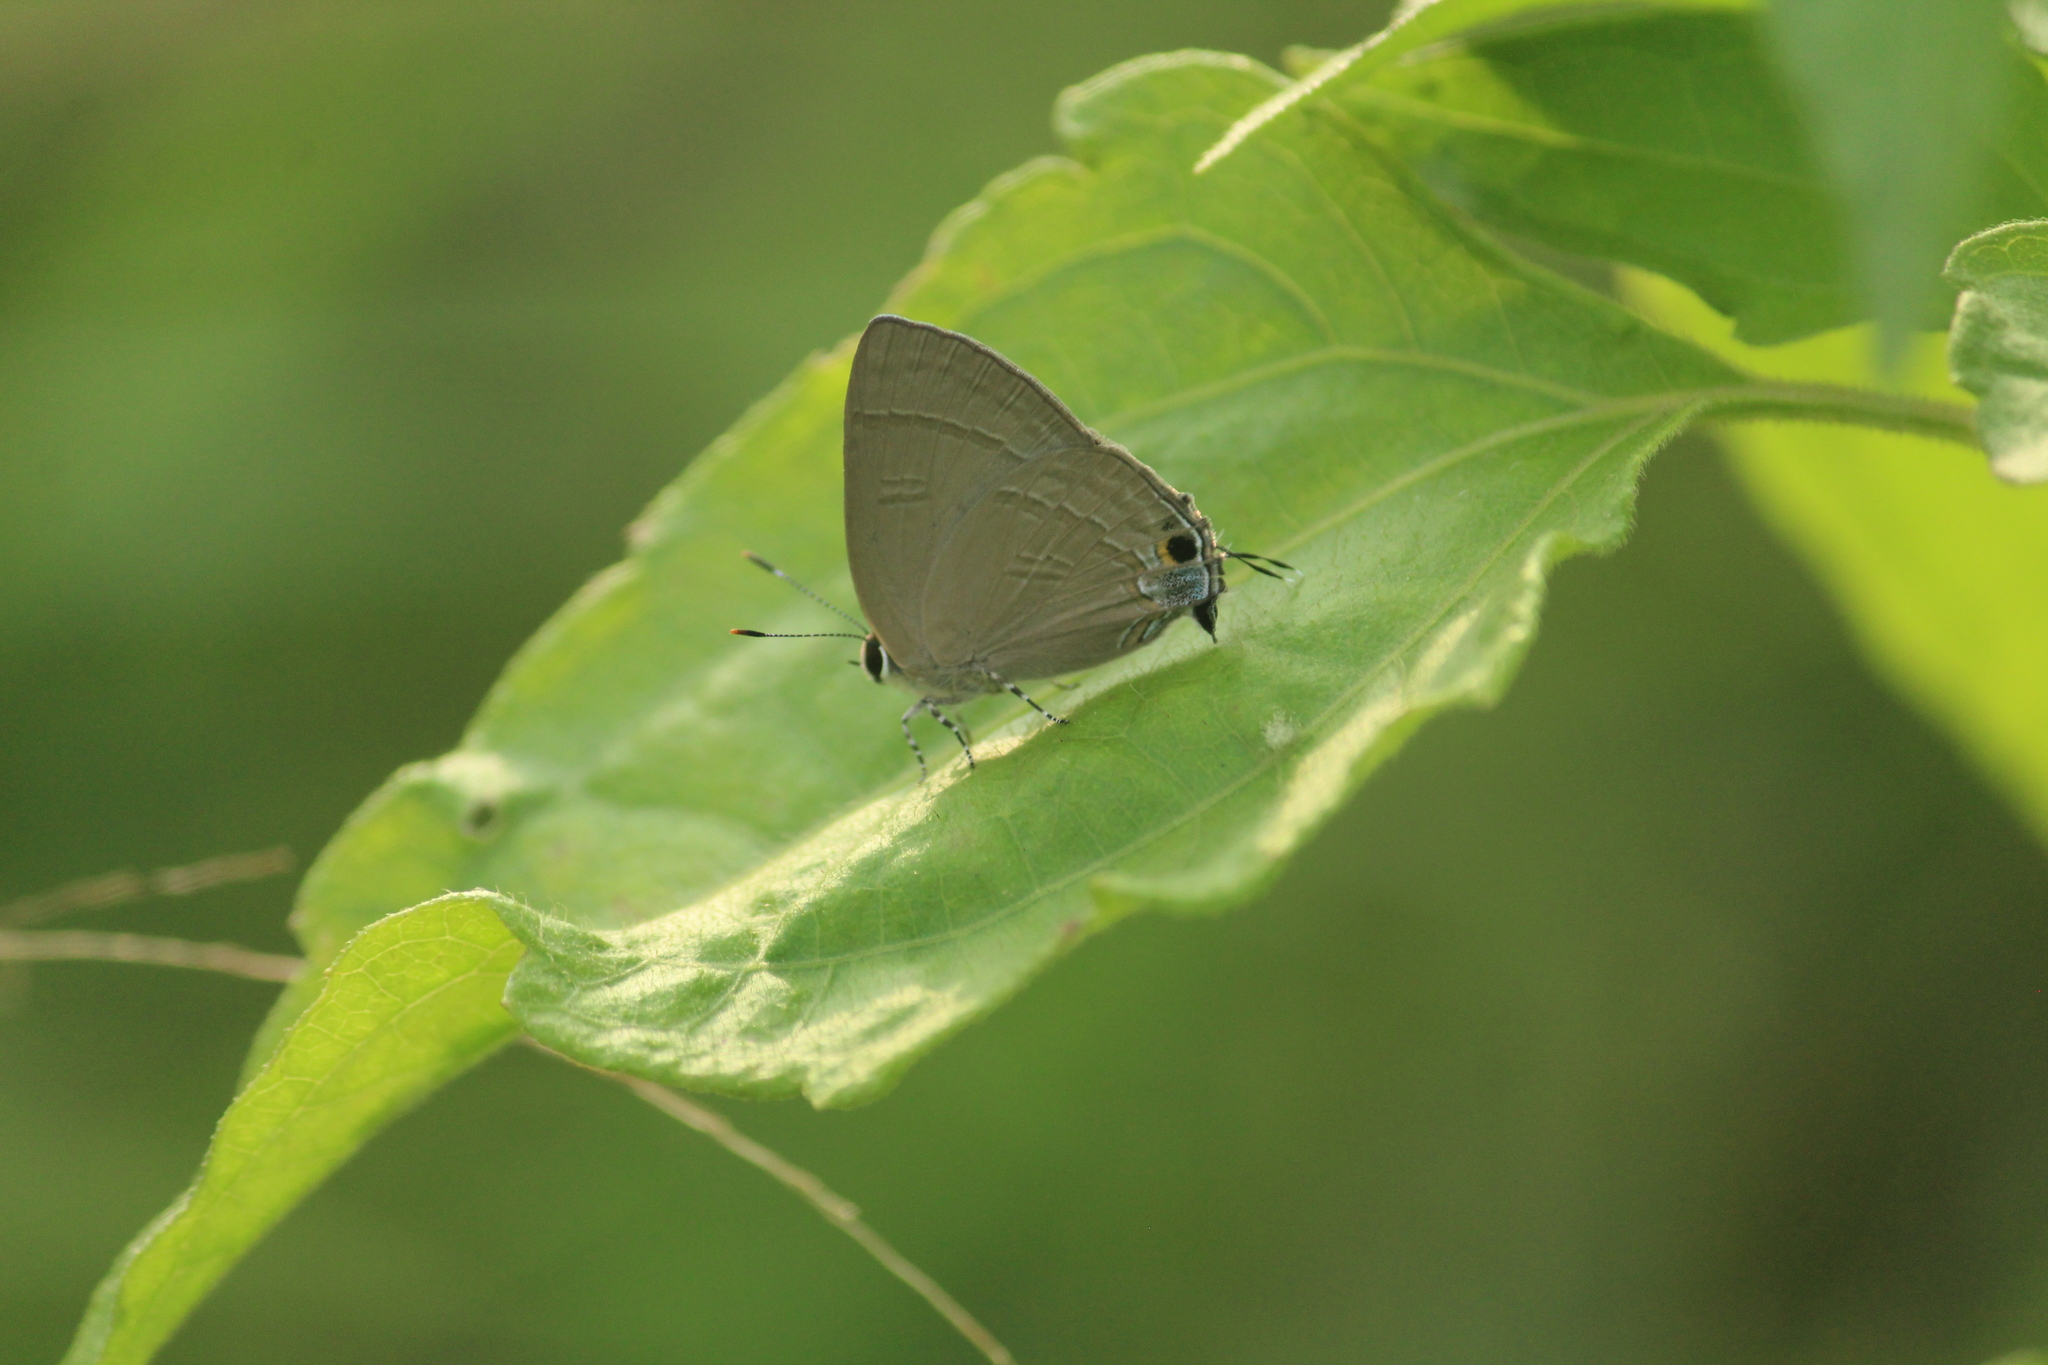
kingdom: Animalia
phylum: Arthropoda
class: Insecta
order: Lepidoptera
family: Lycaenidae
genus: Rapala
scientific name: Rapala manea
